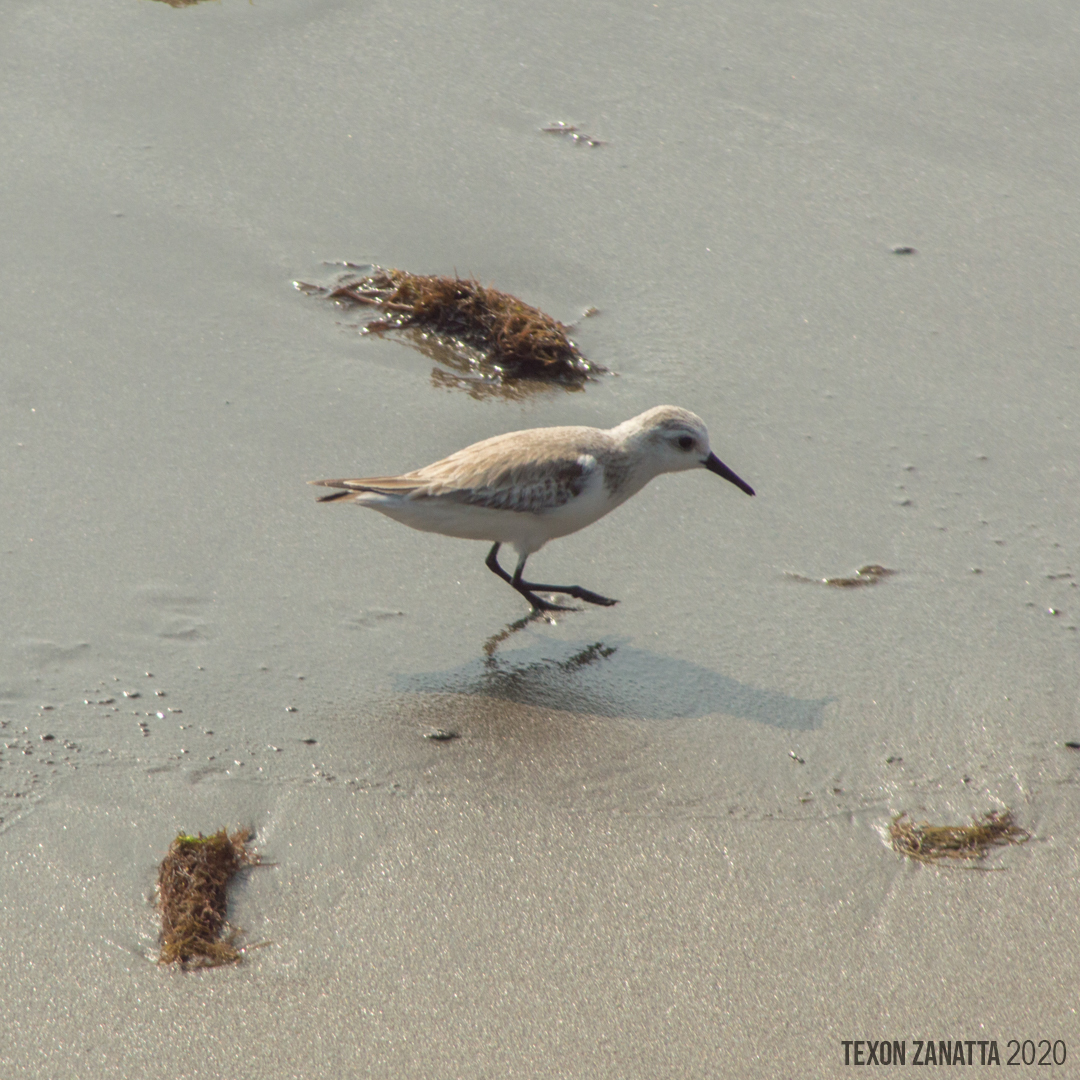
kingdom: Animalia
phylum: Chordata
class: Aves
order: Charadriiformes
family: Scolopacidae
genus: Calidris
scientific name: Calidris alba
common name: Sanderling
